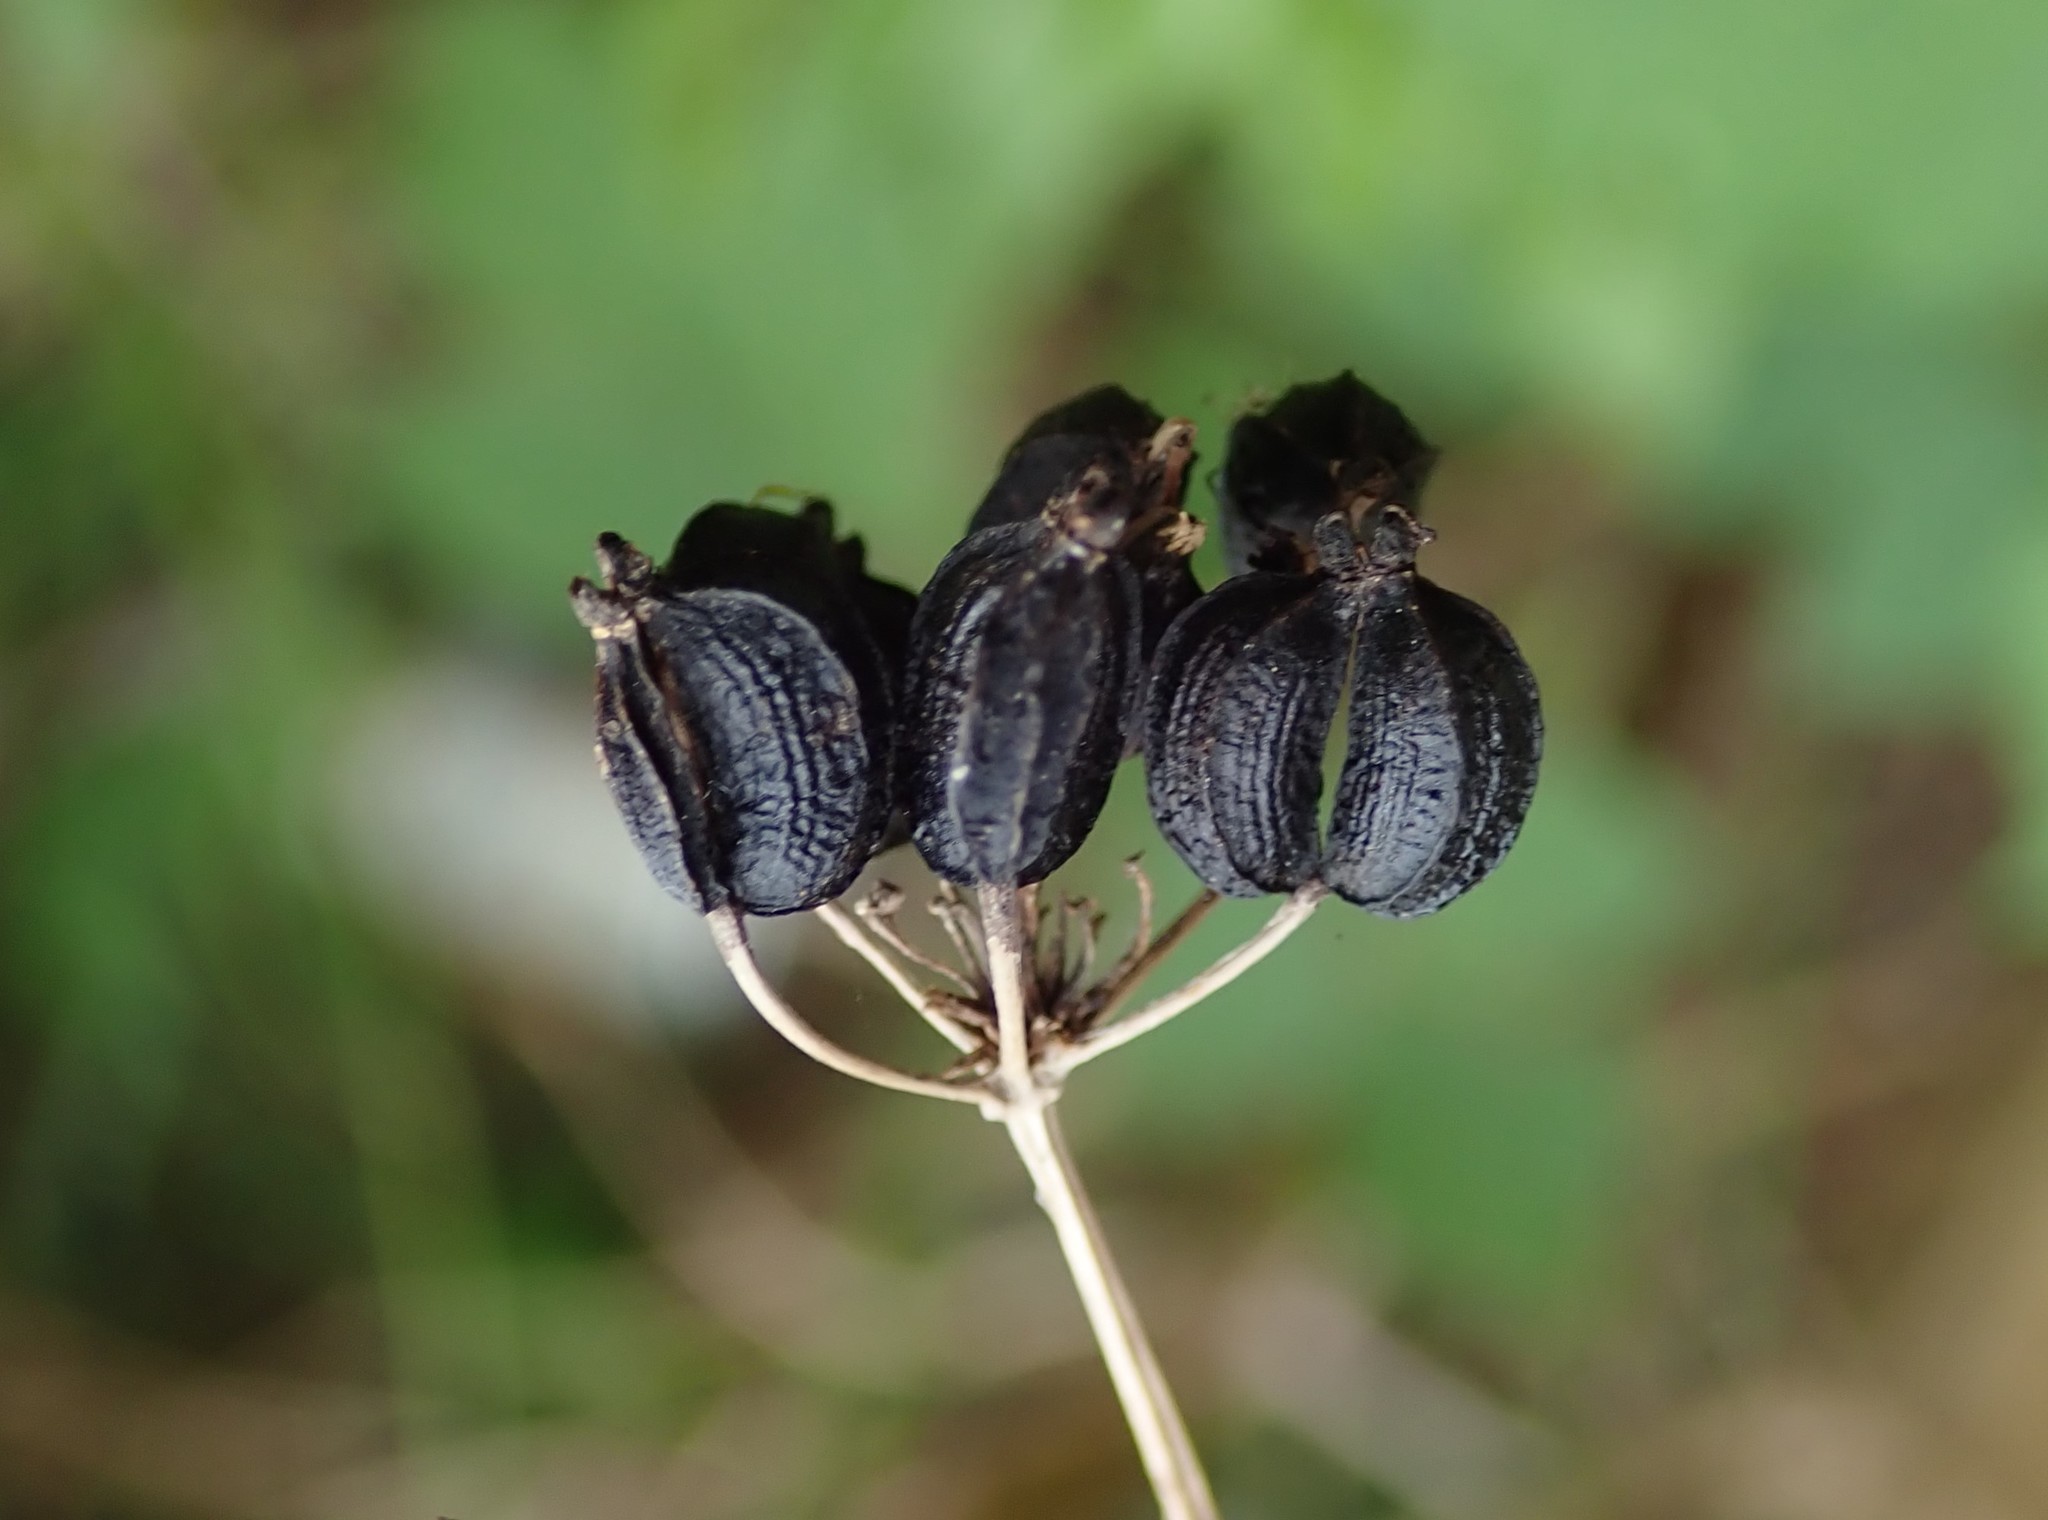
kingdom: Plantae
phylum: Tracheophyta
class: Magnoliopsida
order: Apiales
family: Apiaceae
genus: Smyrnium
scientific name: Smyrnium olusatrum
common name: Alexanders
